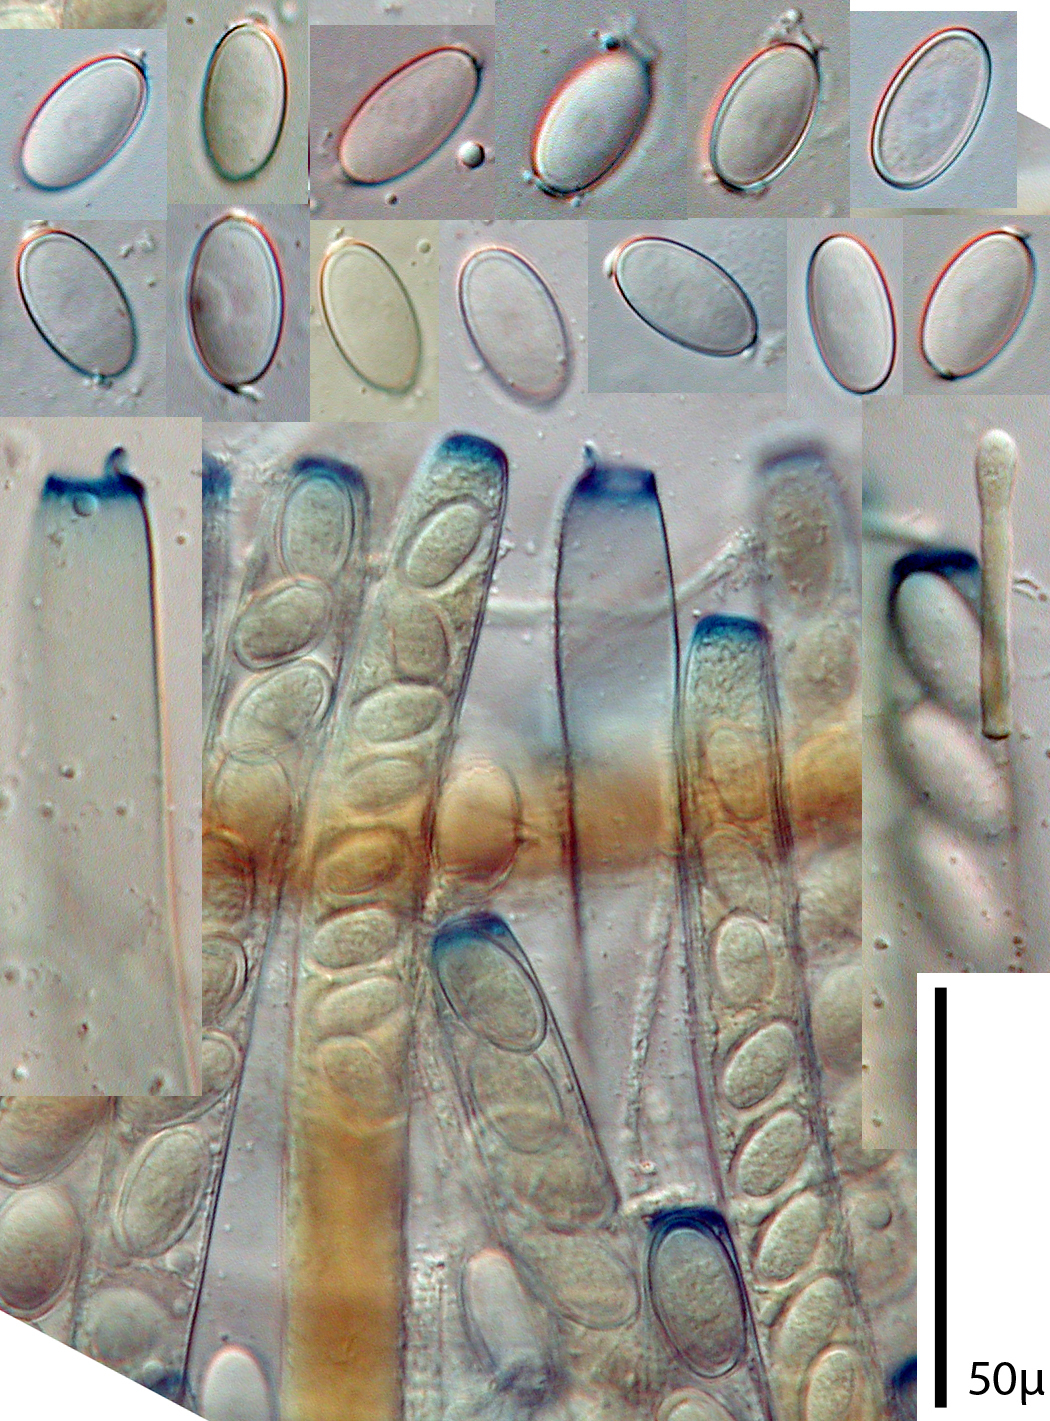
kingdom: Fungi
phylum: Ascomycota
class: Pezizomycetes
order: Pezizales
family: Pezizaceae
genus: Peziza
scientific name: Peziza austrogeaster
